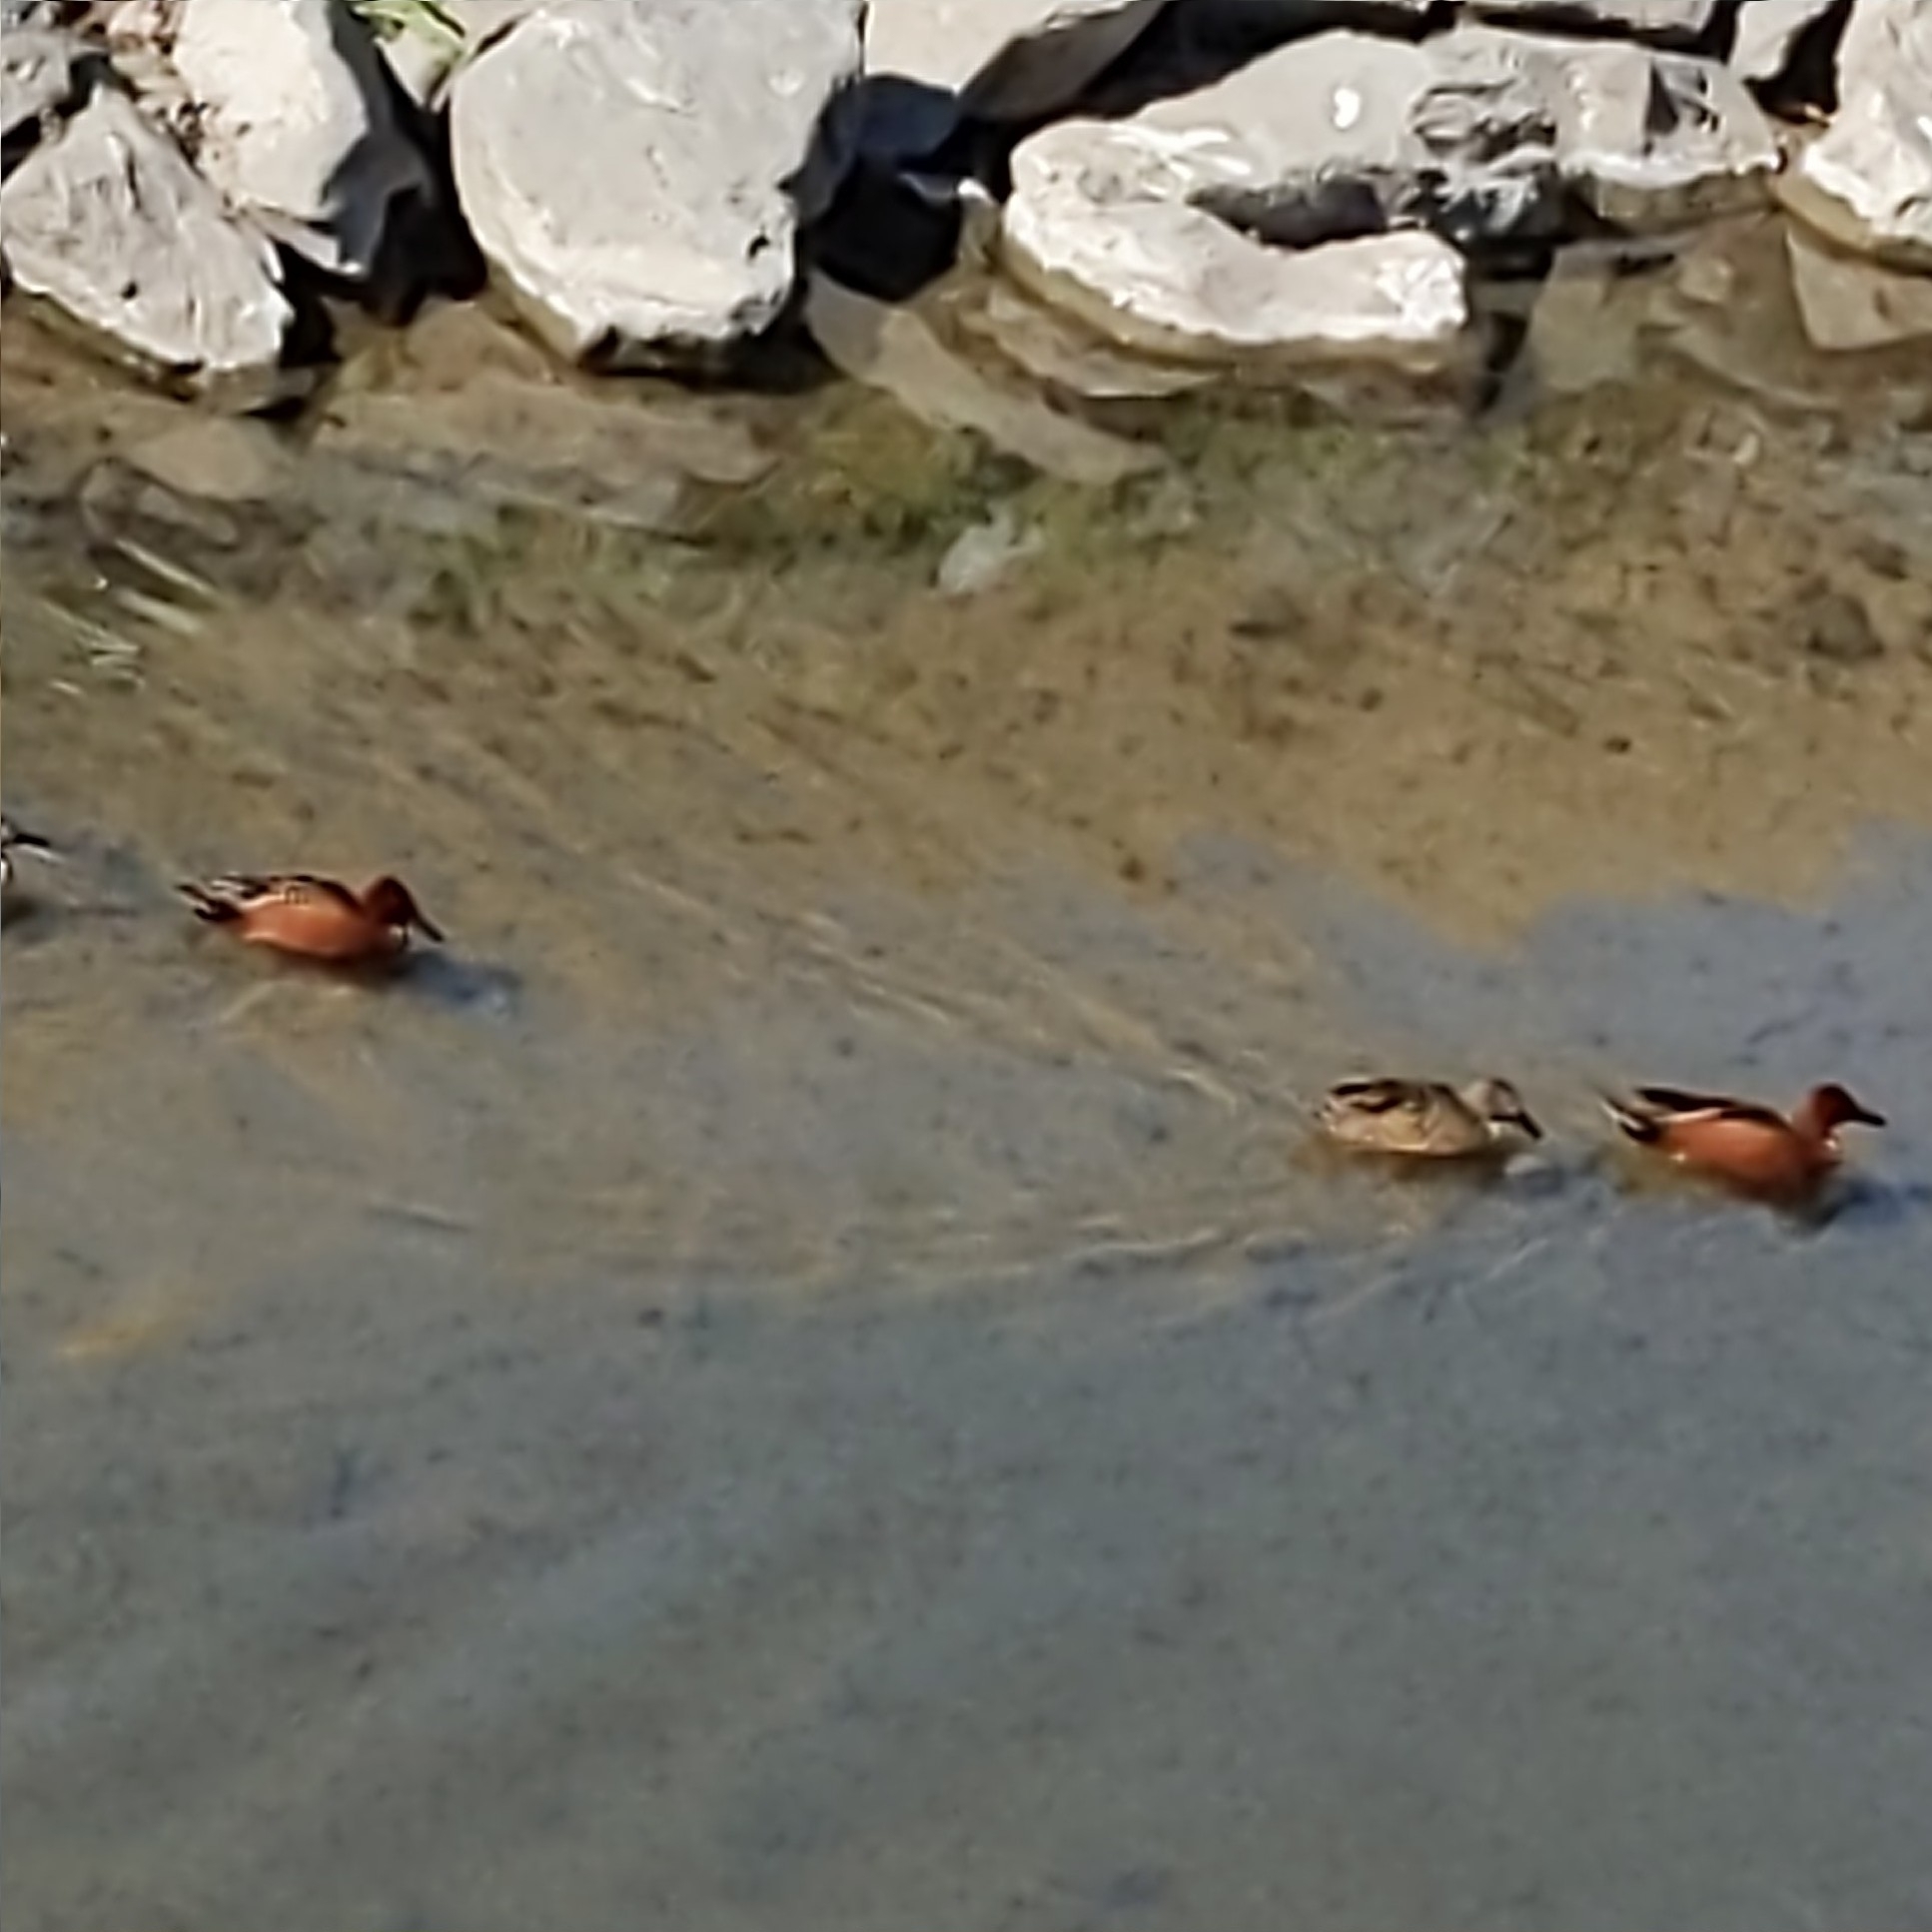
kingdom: Animalia
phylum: Chordata
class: Aves
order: Anseriformes
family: Anatidae
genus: Spatula
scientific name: Spatula cyanoptera
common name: Cinnamon teal
